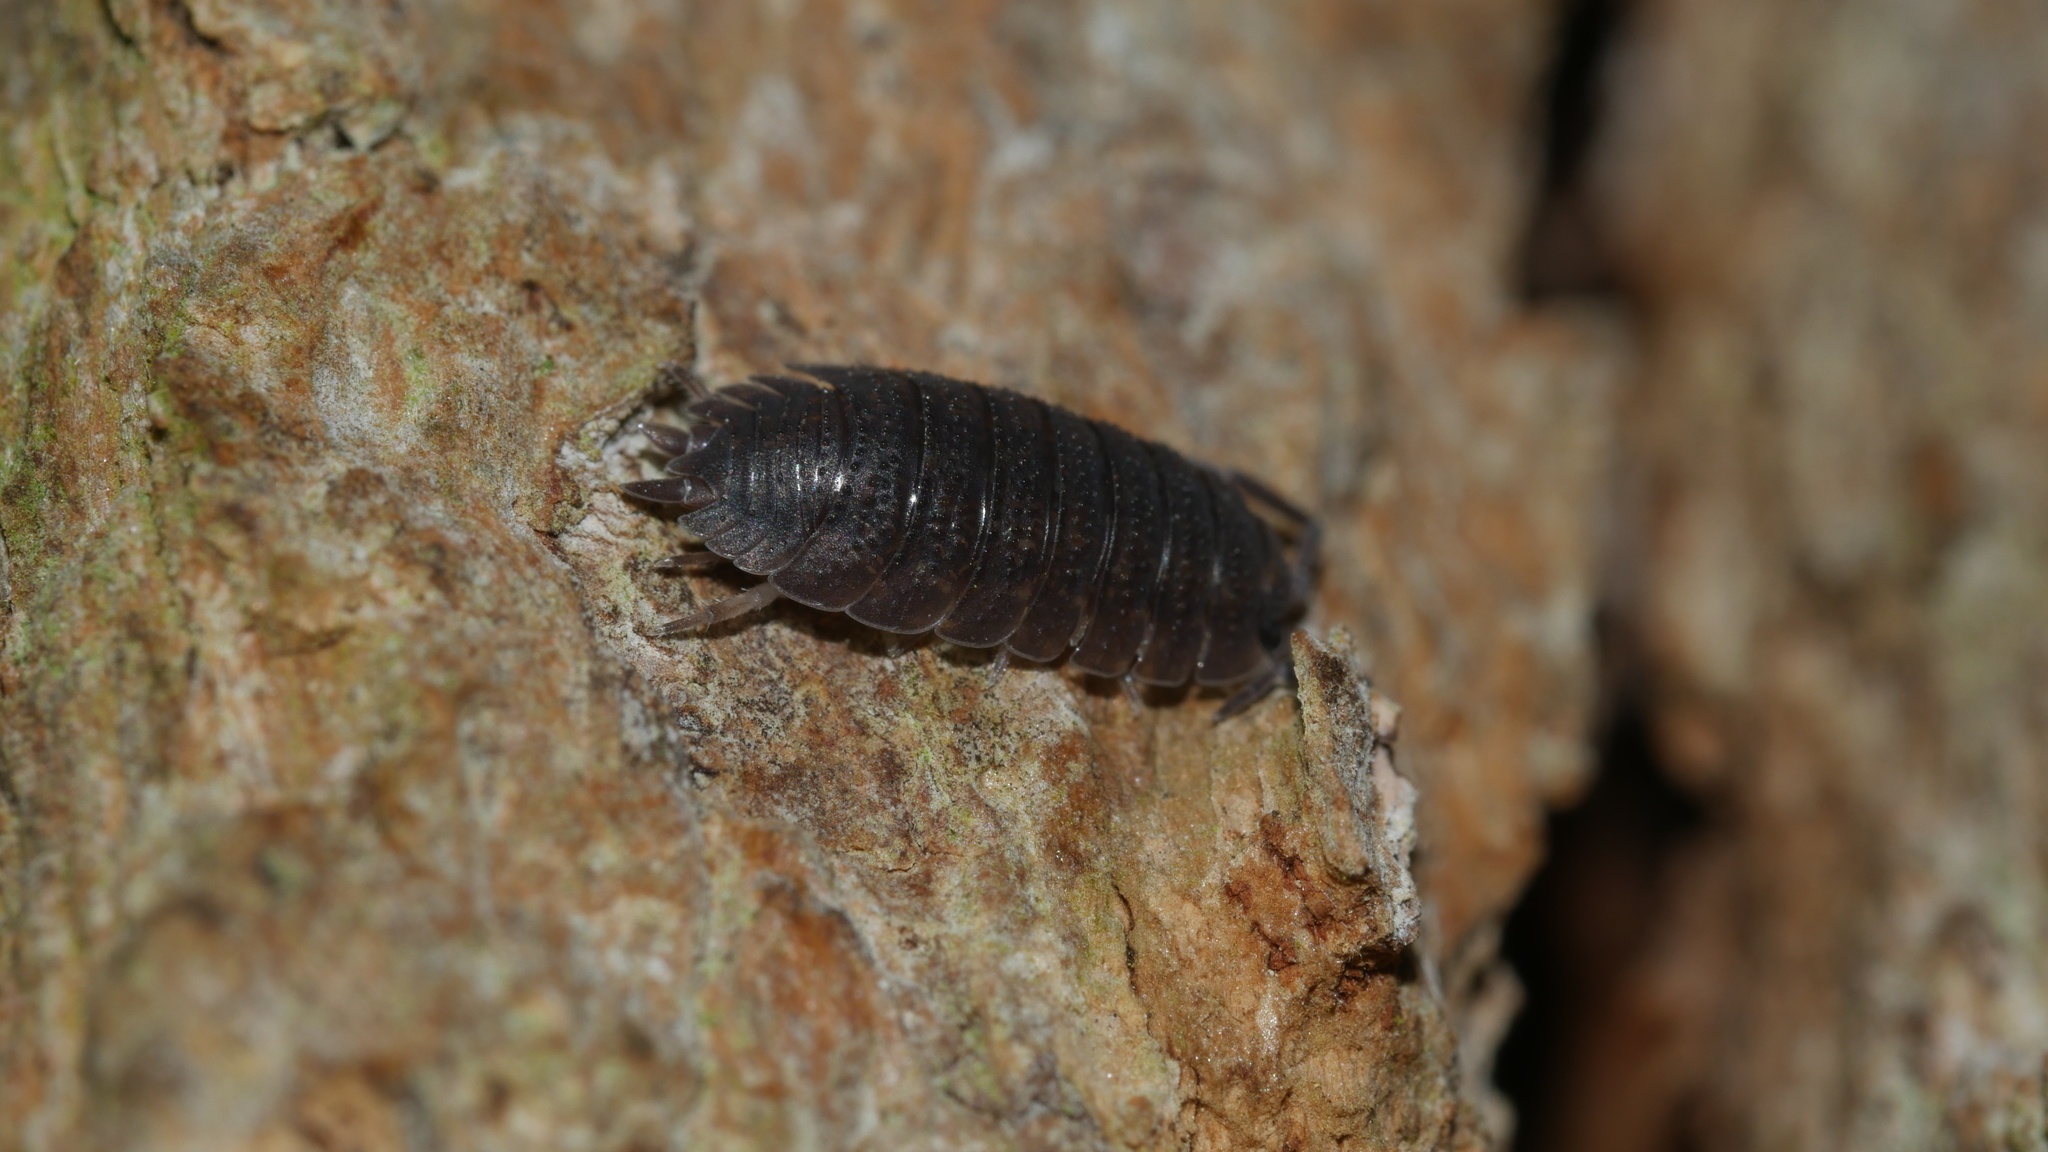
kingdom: Animalia
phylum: Arthropoda
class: Malacostraca
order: Isopoda
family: Porcellionidae
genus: Porcellio
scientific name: Porcellio scaber
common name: Common rough woodlouse
